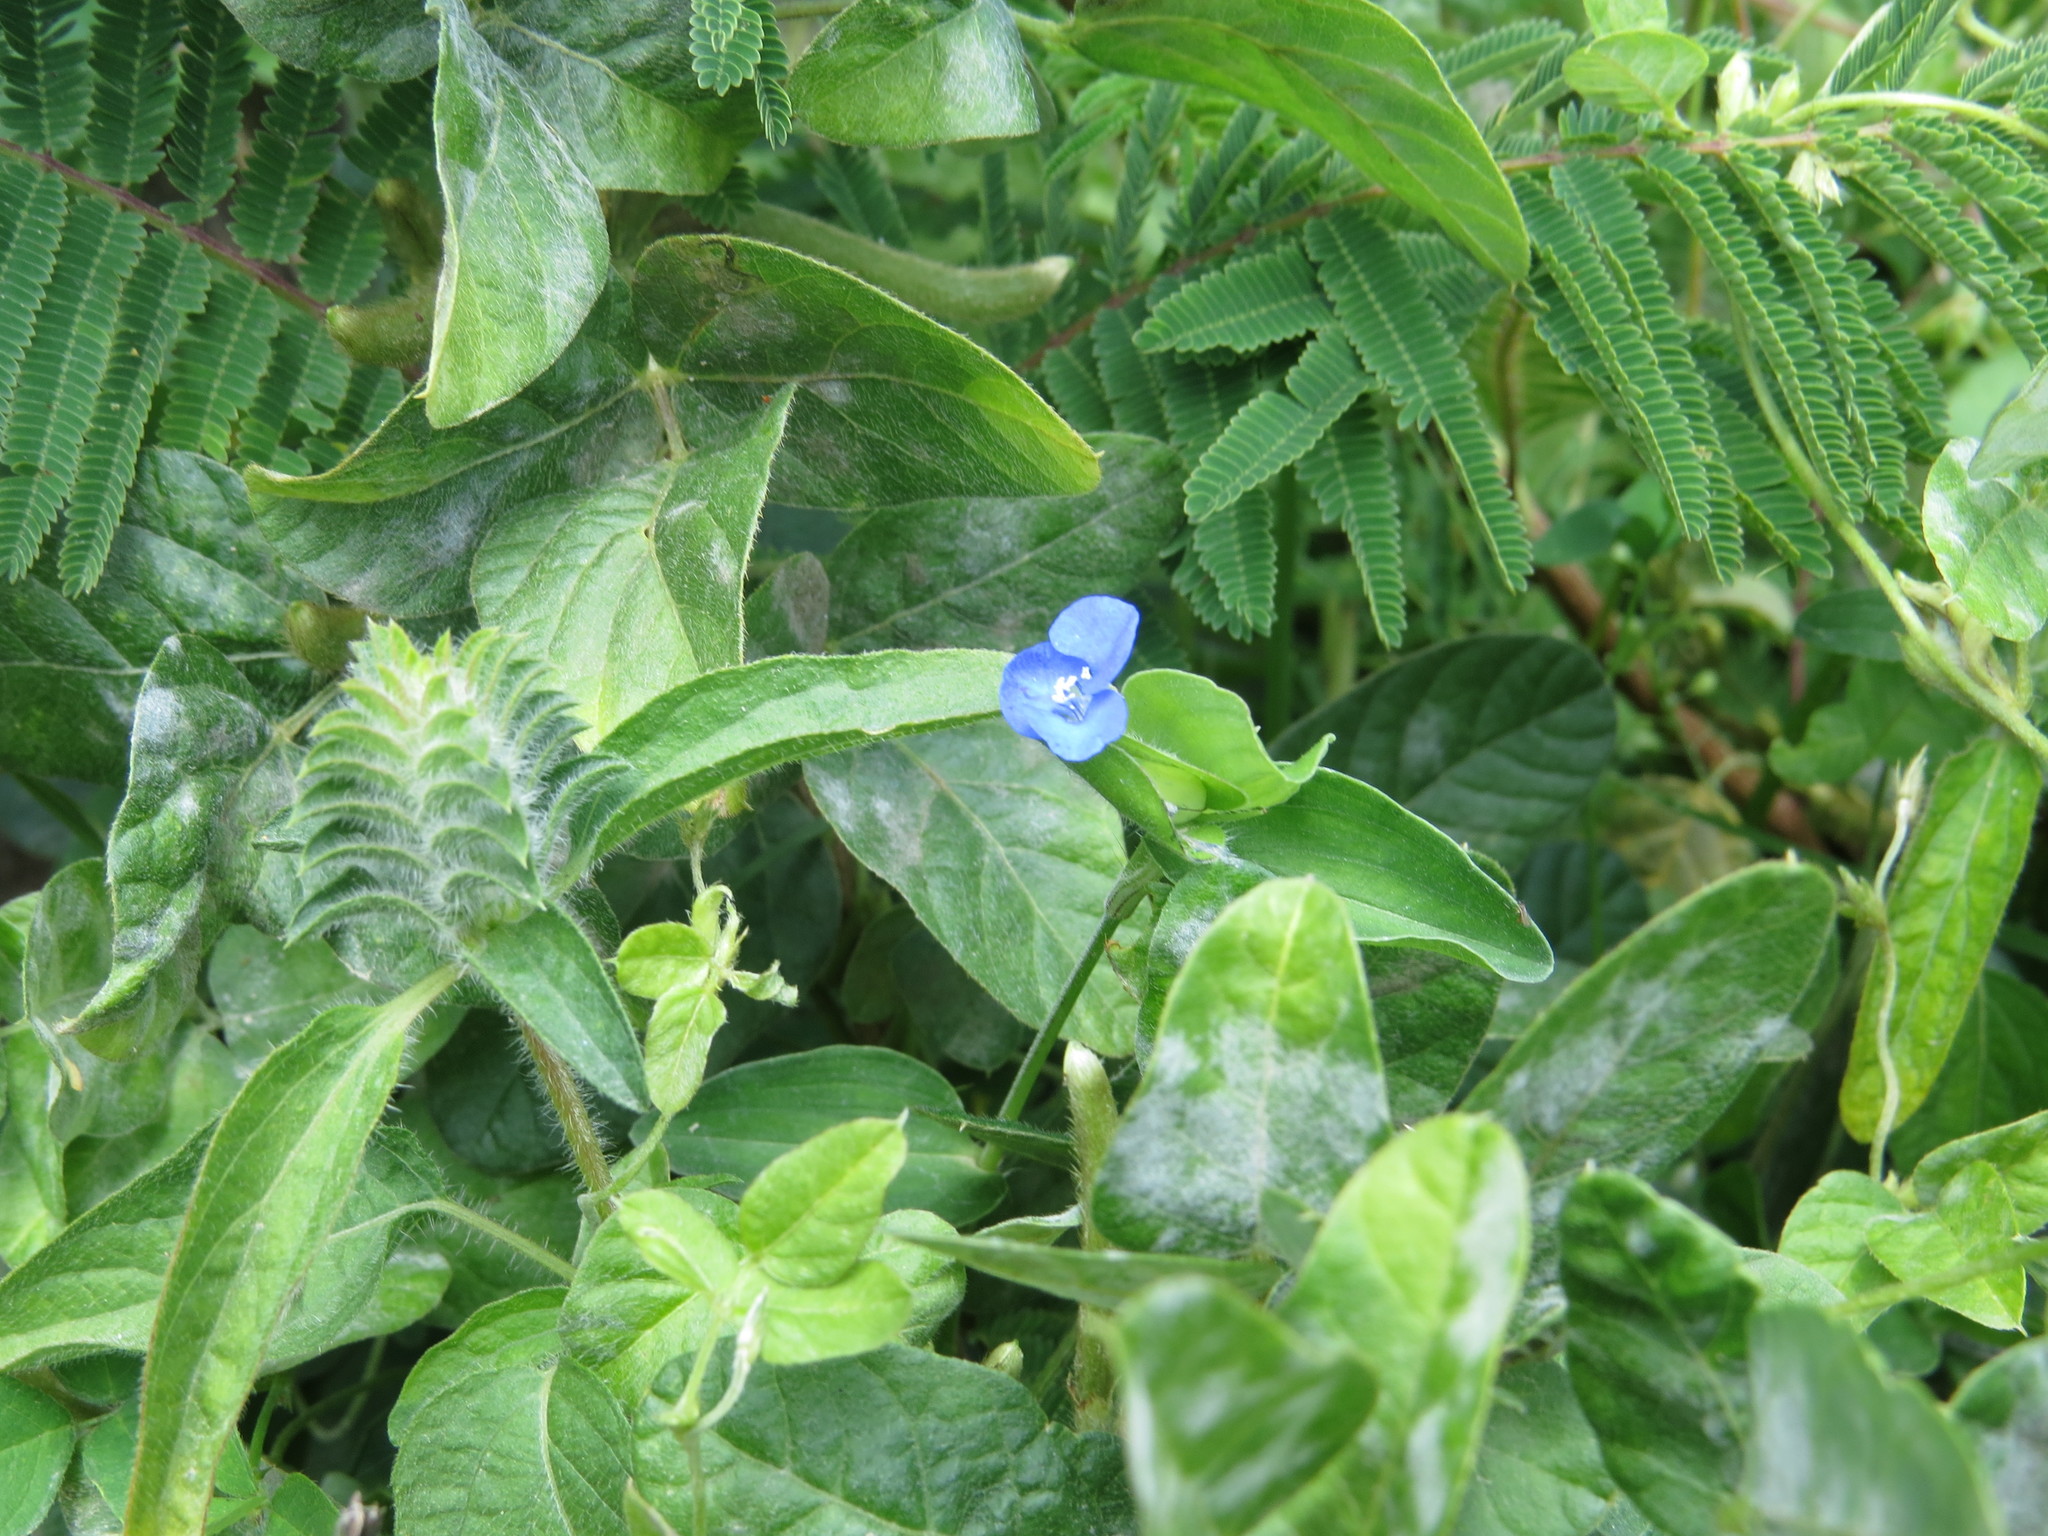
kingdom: Plantae
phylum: Tracheophyta
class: Liliopsida
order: Commelinales
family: Commelinaceae
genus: Commelina
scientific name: Commelina tuberosa
